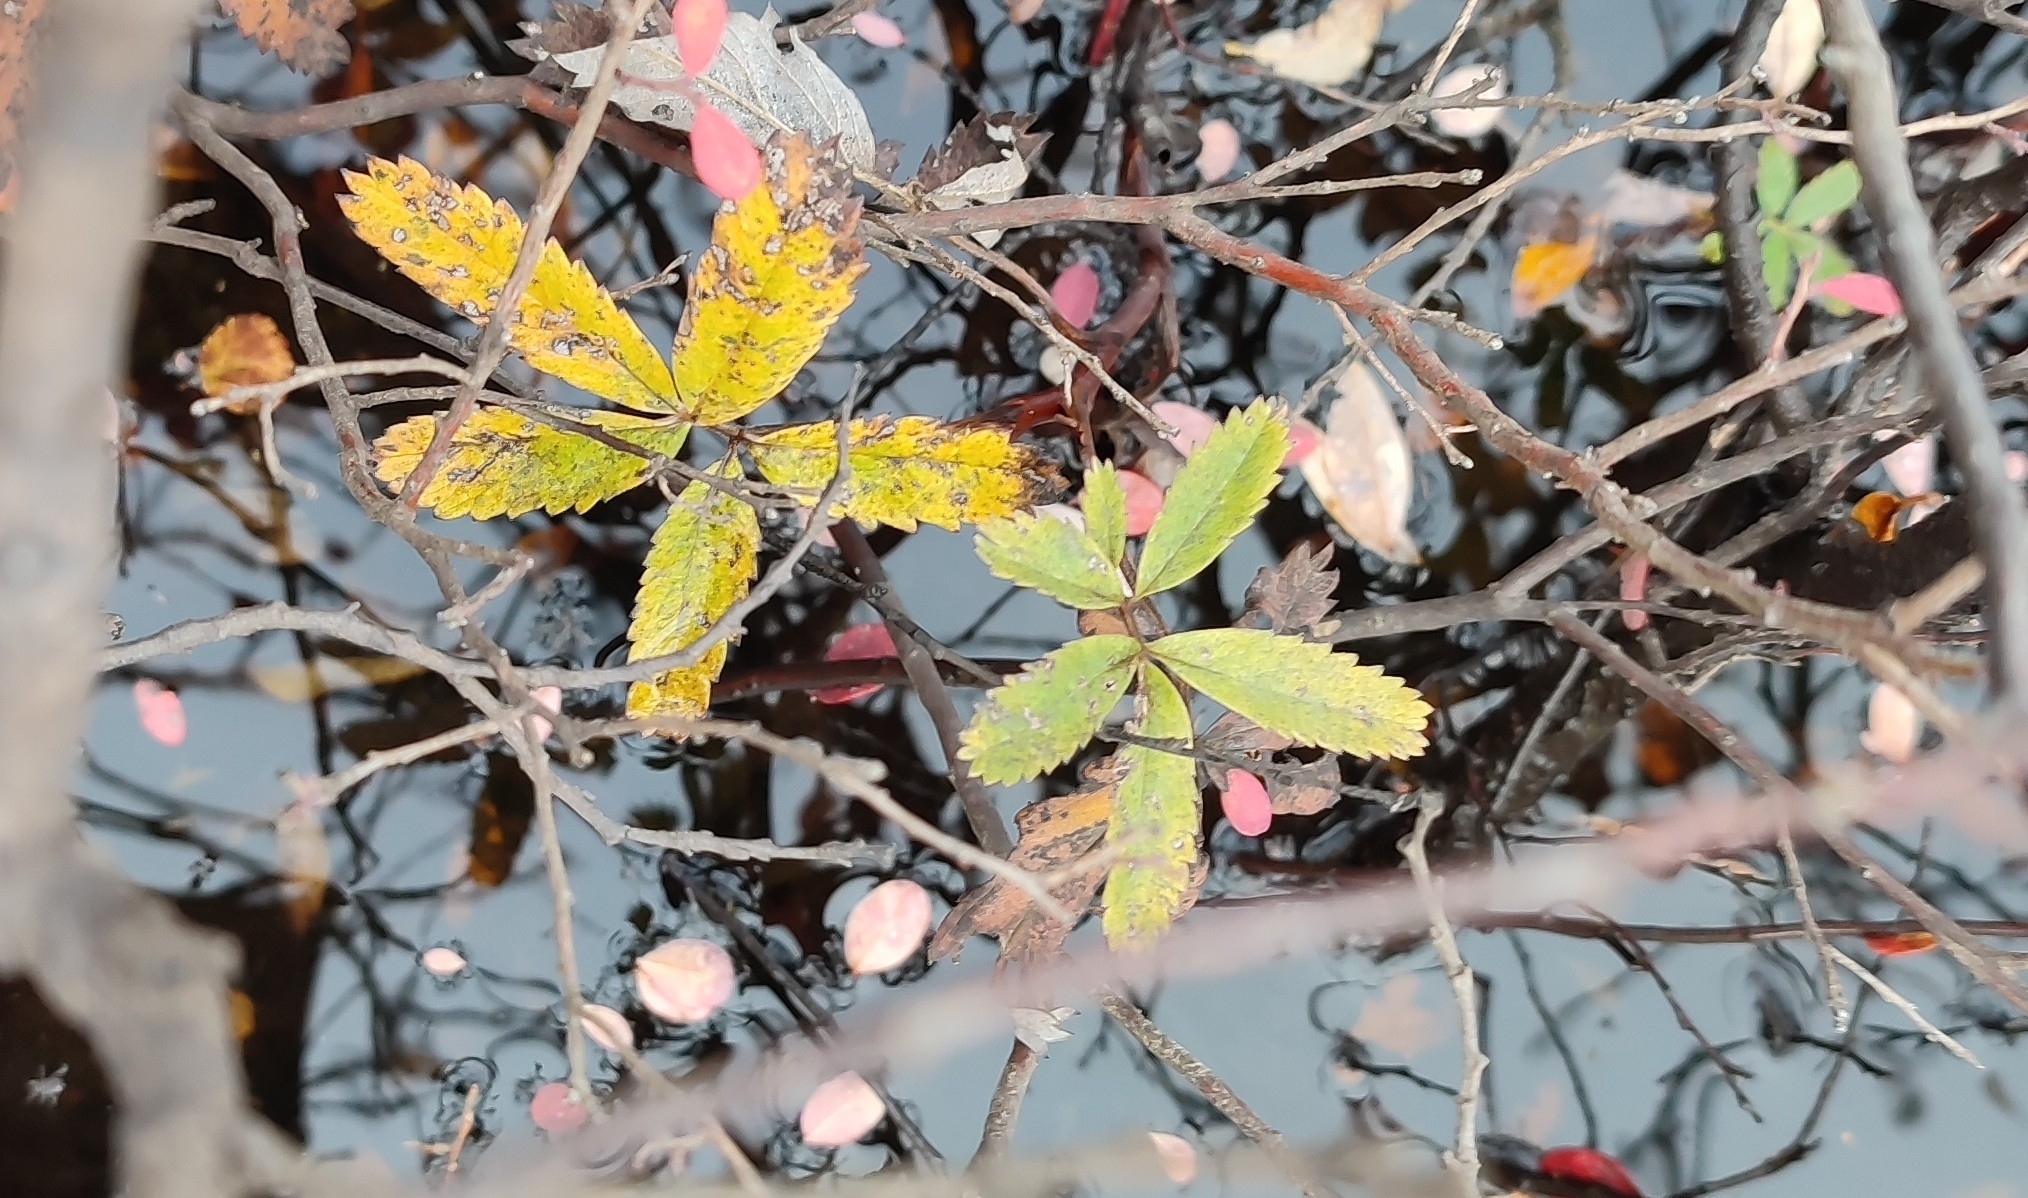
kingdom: Plantae
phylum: Tracheophyta
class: Magnoliopsida
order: Rosales
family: Rosaceae
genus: Comarum
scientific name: Comarum palustre
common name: Marsh cinquefoil
